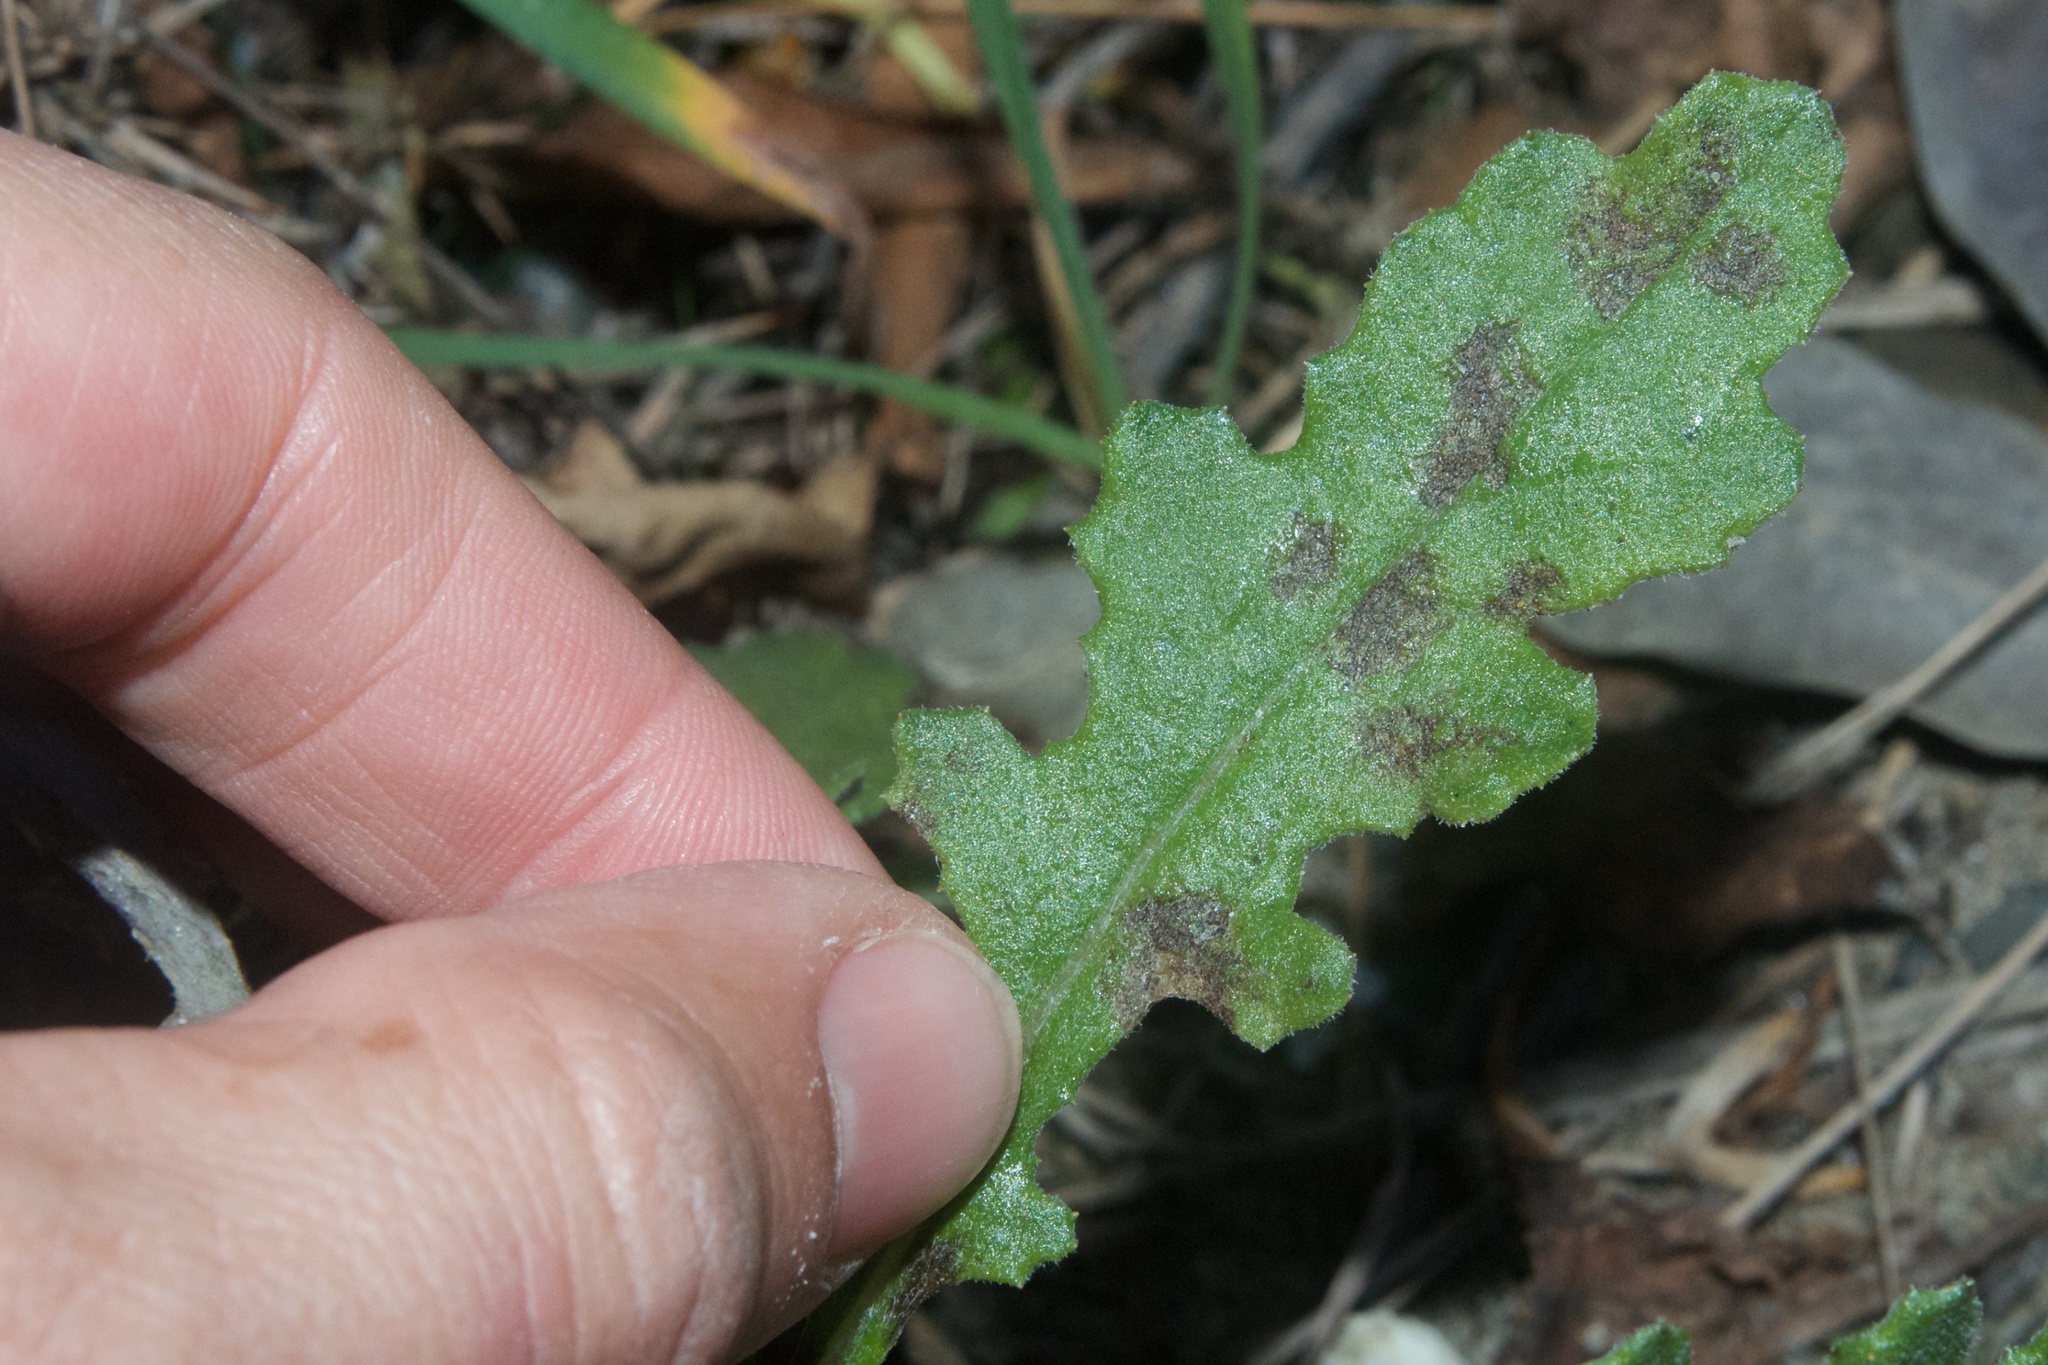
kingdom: Plantae
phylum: Tracheophyta
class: Magnoliopsida
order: Asterales
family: Asteraceae
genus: Senecio
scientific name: Senecio glomeratus
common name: Cutleaf burnweed
